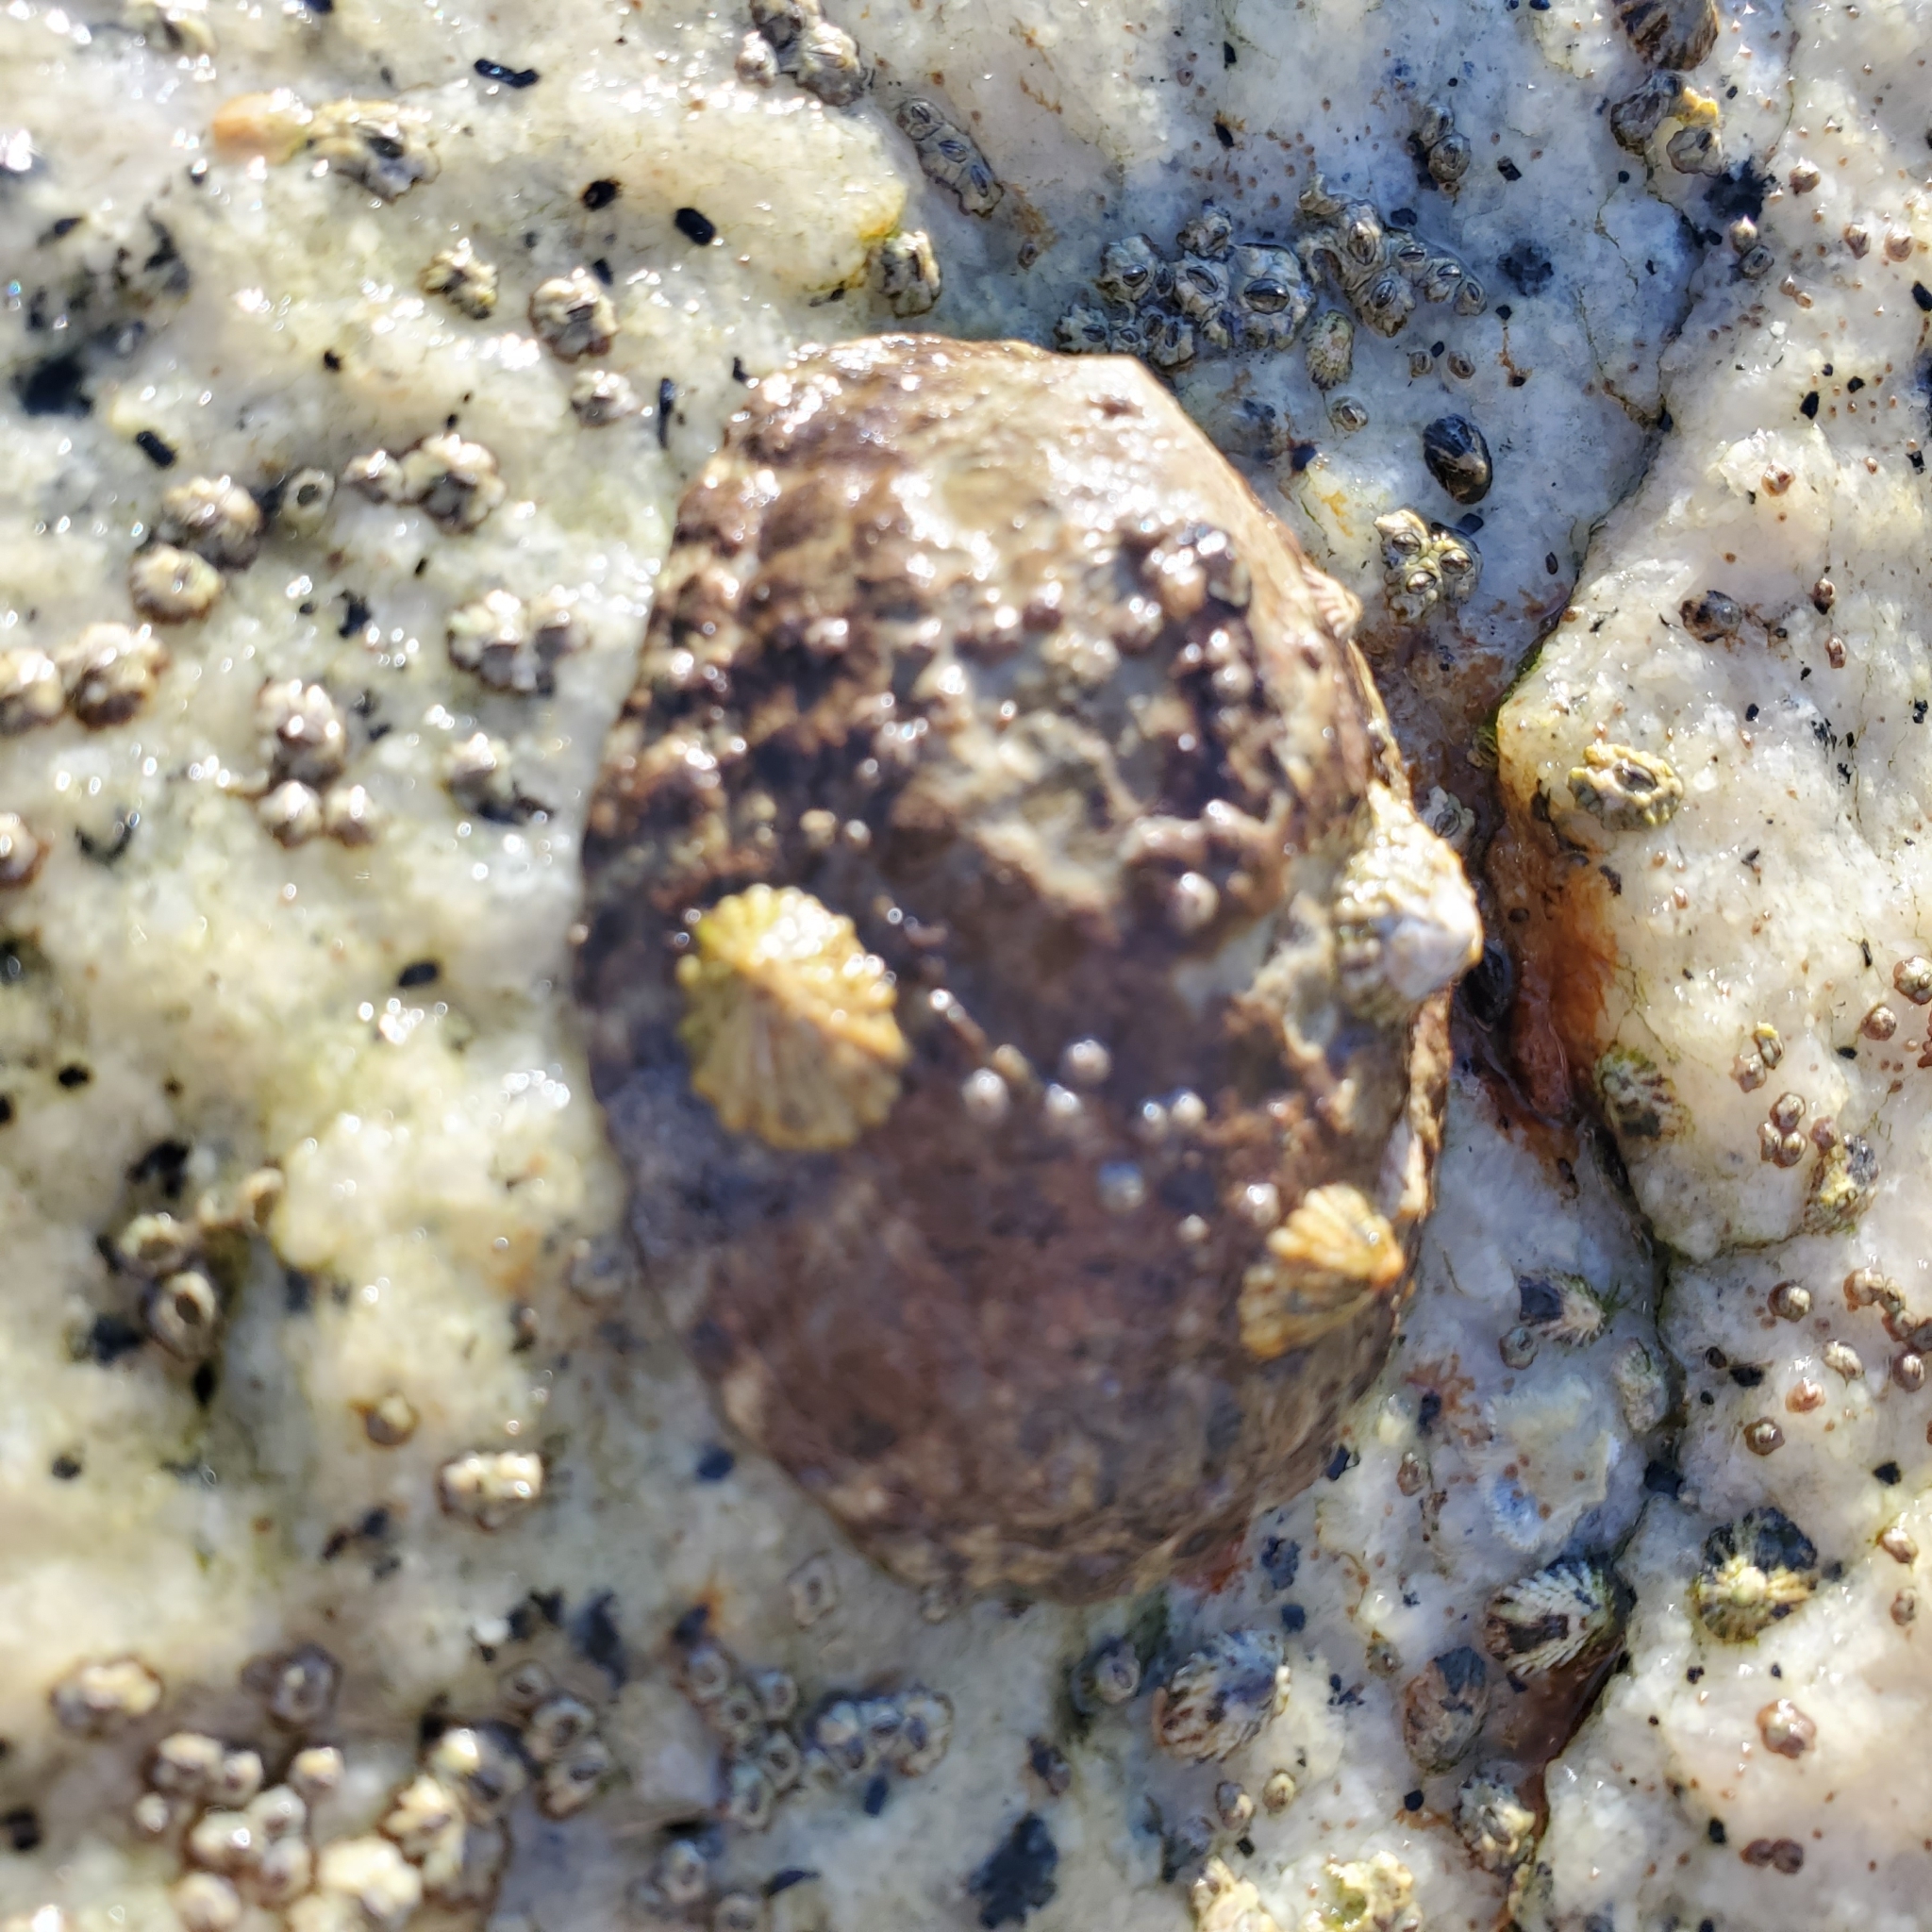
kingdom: Animalia
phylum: Mollusca
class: Gastropoda
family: Lottiidae
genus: Lottia
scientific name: Lottia gigantea
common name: Owl limpet
